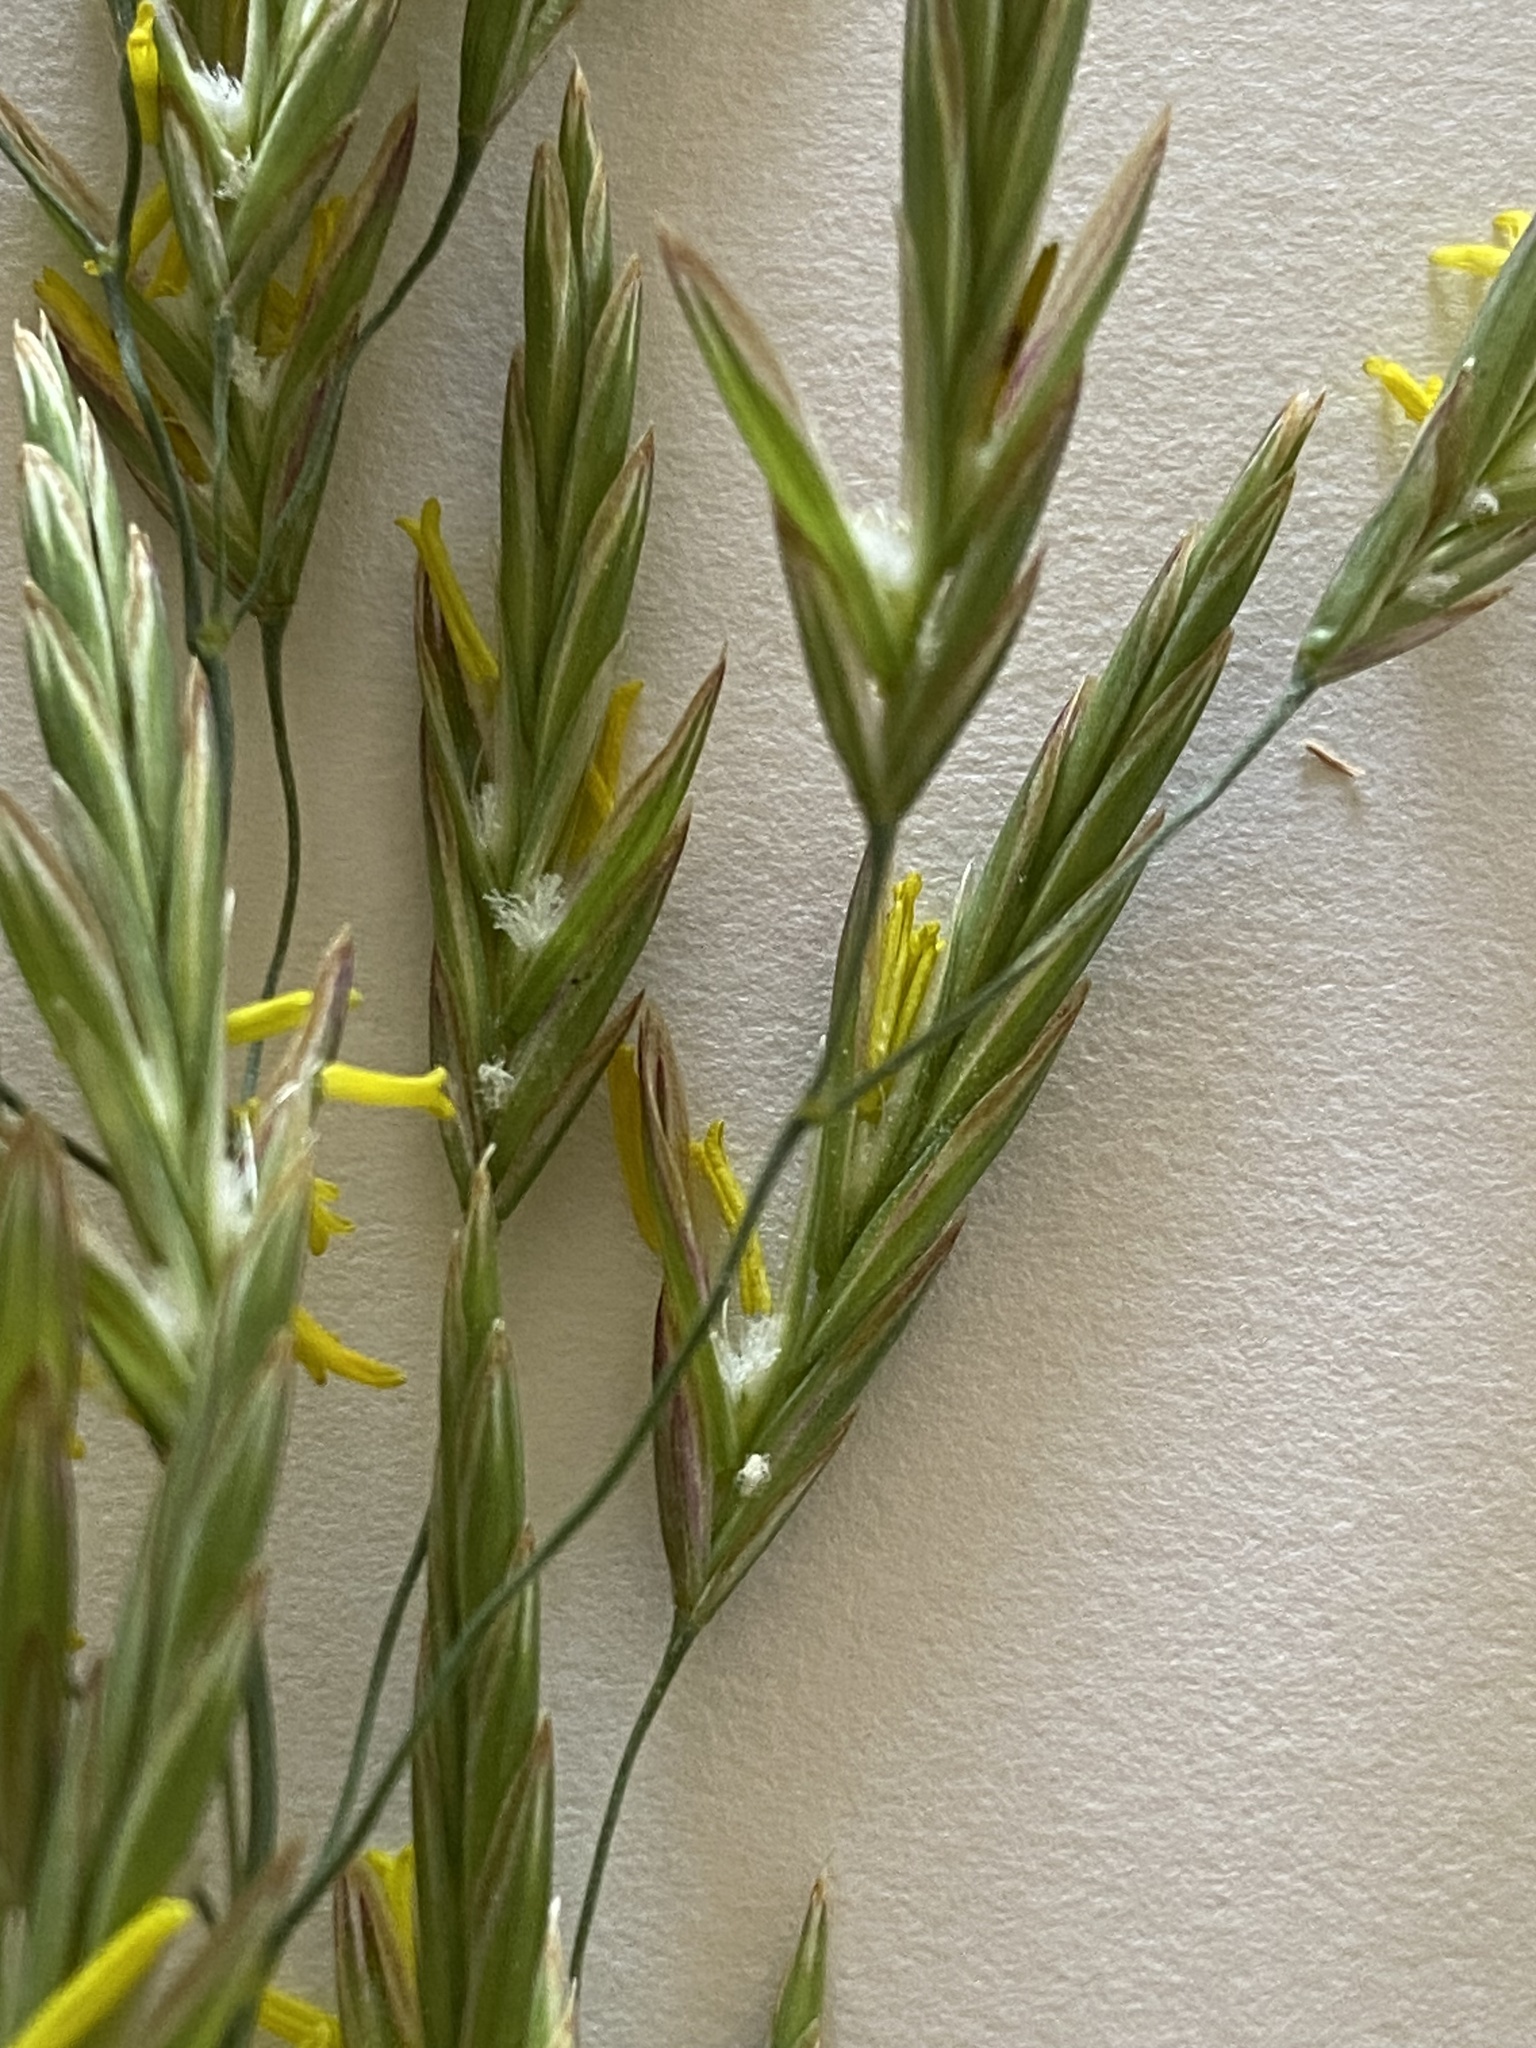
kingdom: Plantae
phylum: Tracheophyta
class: Liliopsida
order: Poales
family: Poaceae
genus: Bromus
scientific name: Bromus inermis
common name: Smooth brome
